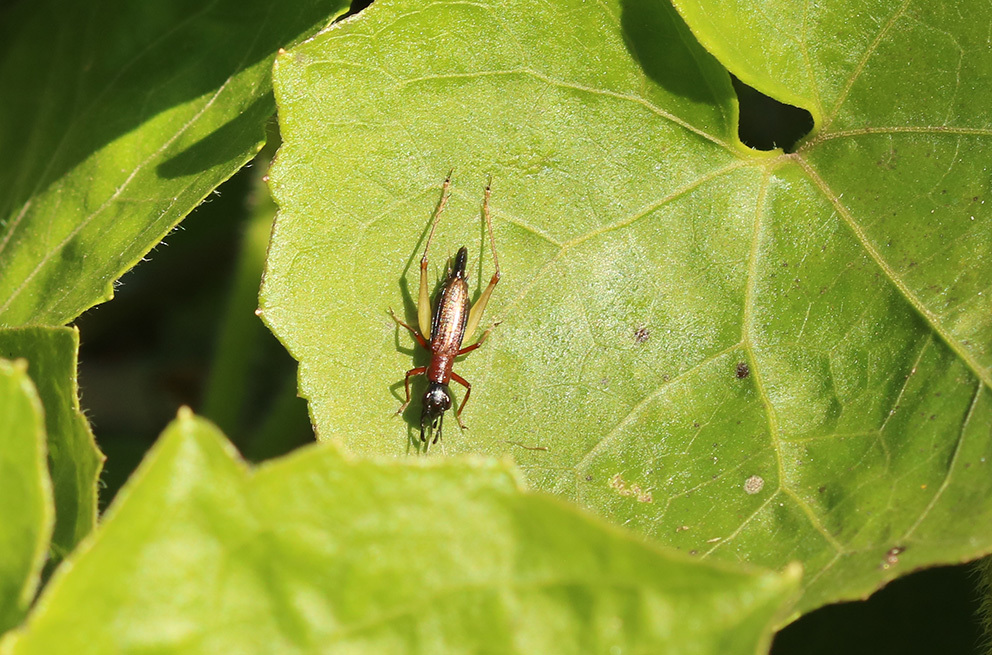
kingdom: Animalia
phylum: Arthropoda
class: Insecta
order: Orthoptera
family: Trigonidiidae
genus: Cranistus
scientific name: Cranistus colliurides
